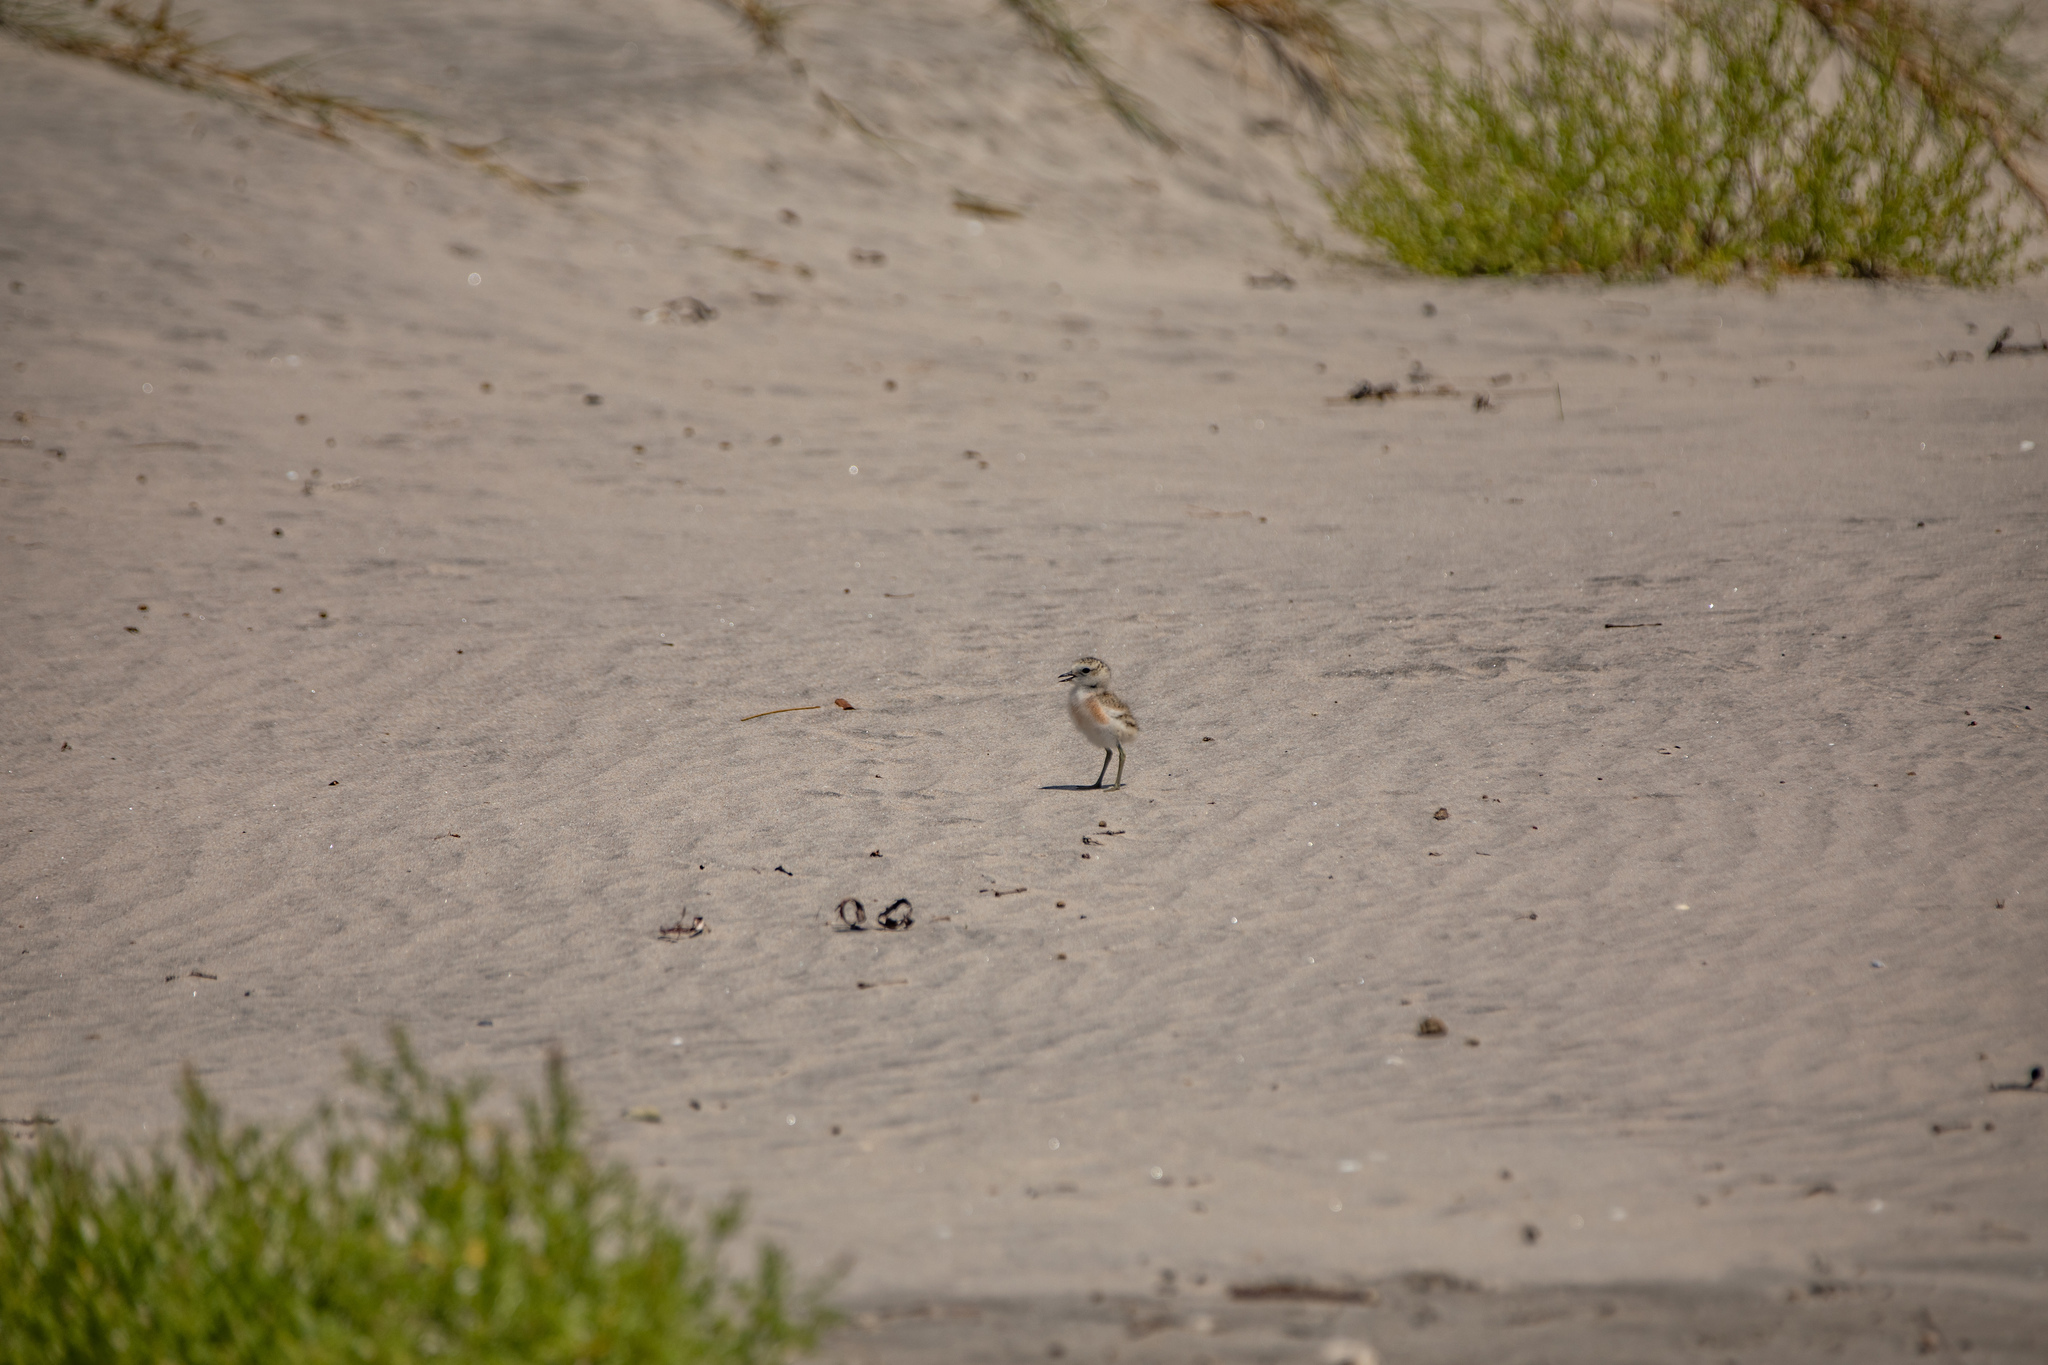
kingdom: Animalia
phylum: Chordata
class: Aves
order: Charadriiformes
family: Charadriidae
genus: Anarhynchus
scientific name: Anarhynchus
